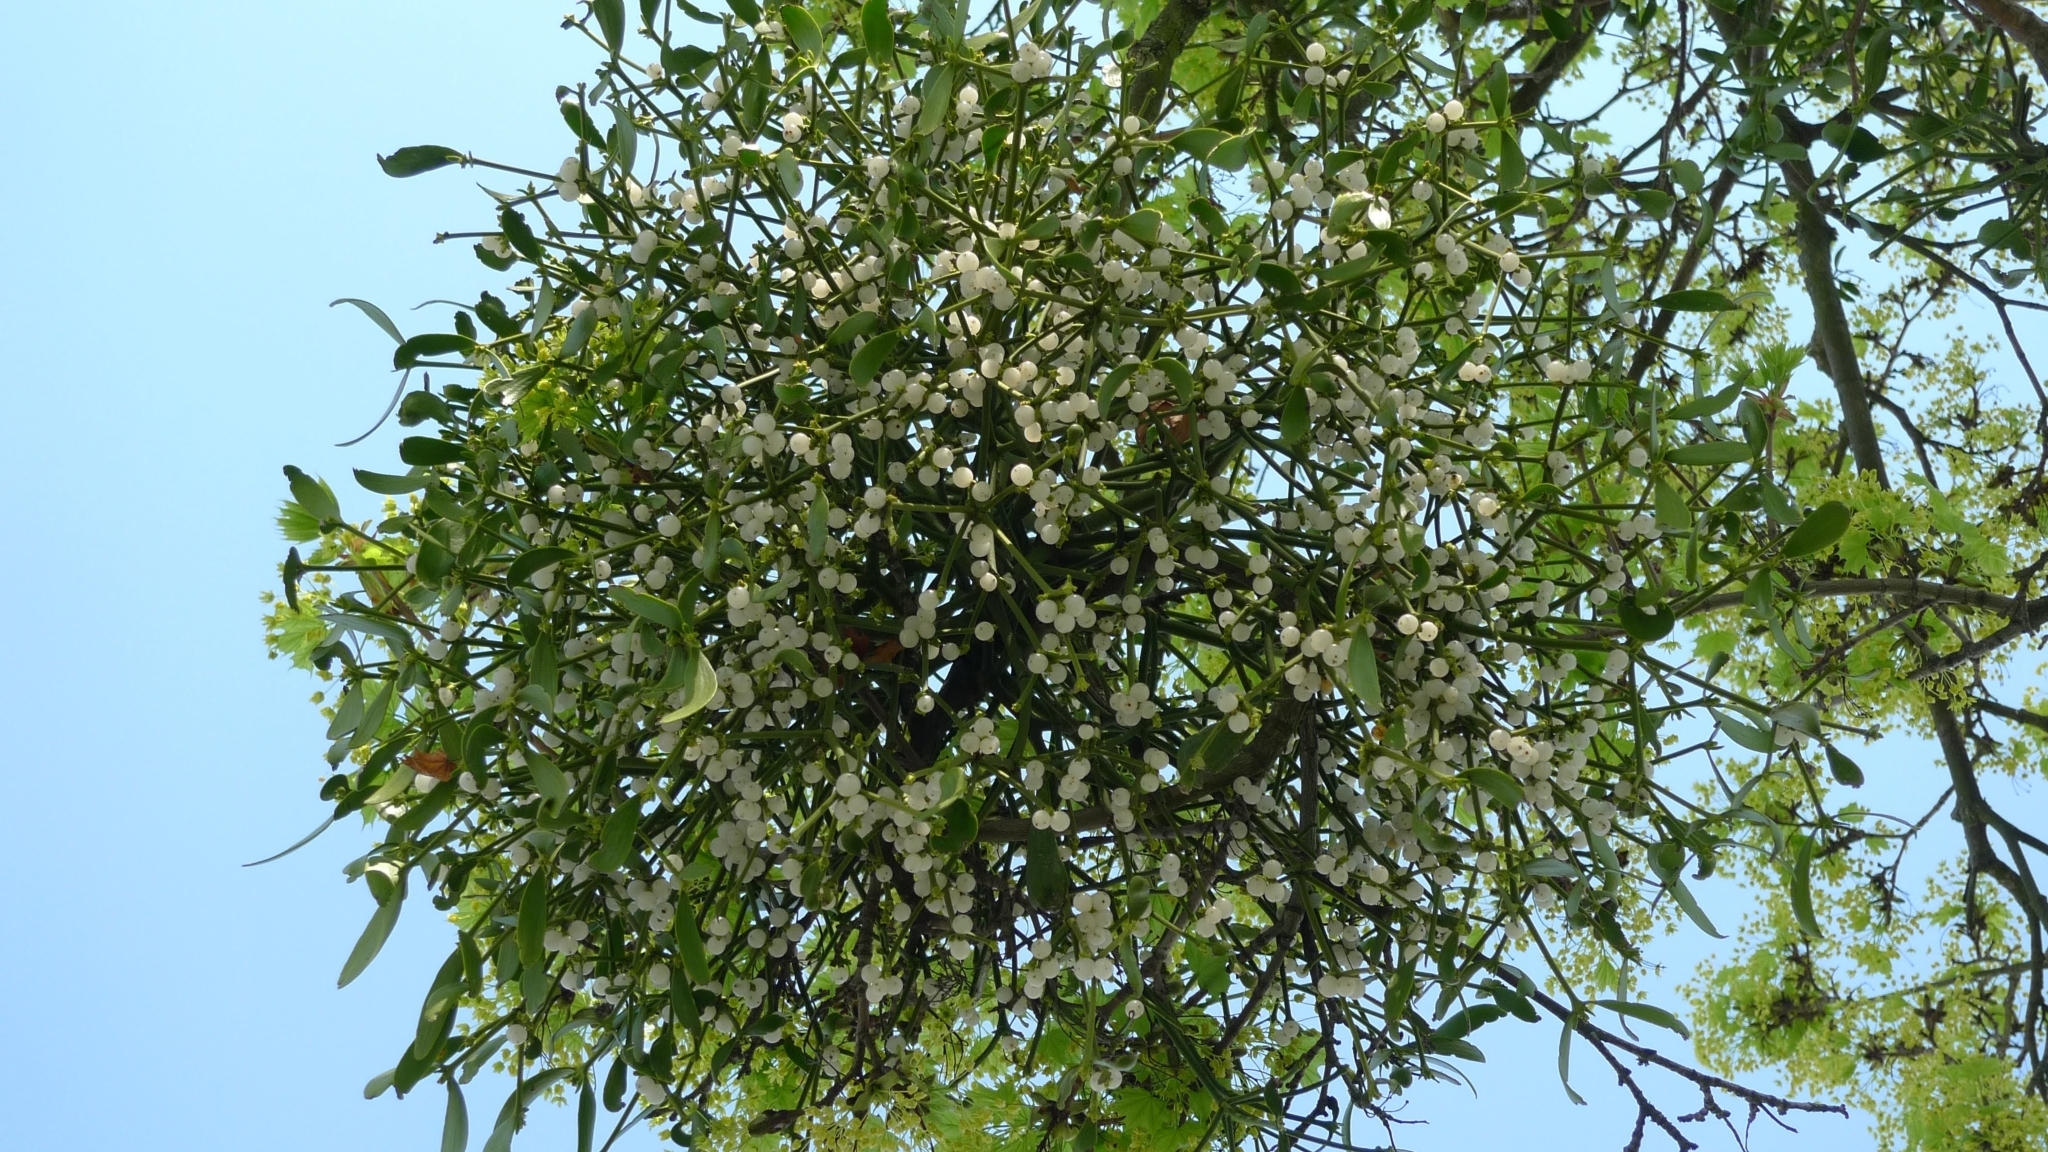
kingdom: Plantae
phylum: Tracheophyta
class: Magnoliopsida
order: Santalales
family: Viscaceae
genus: Viscum
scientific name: Viscum album
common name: Mistletoe
